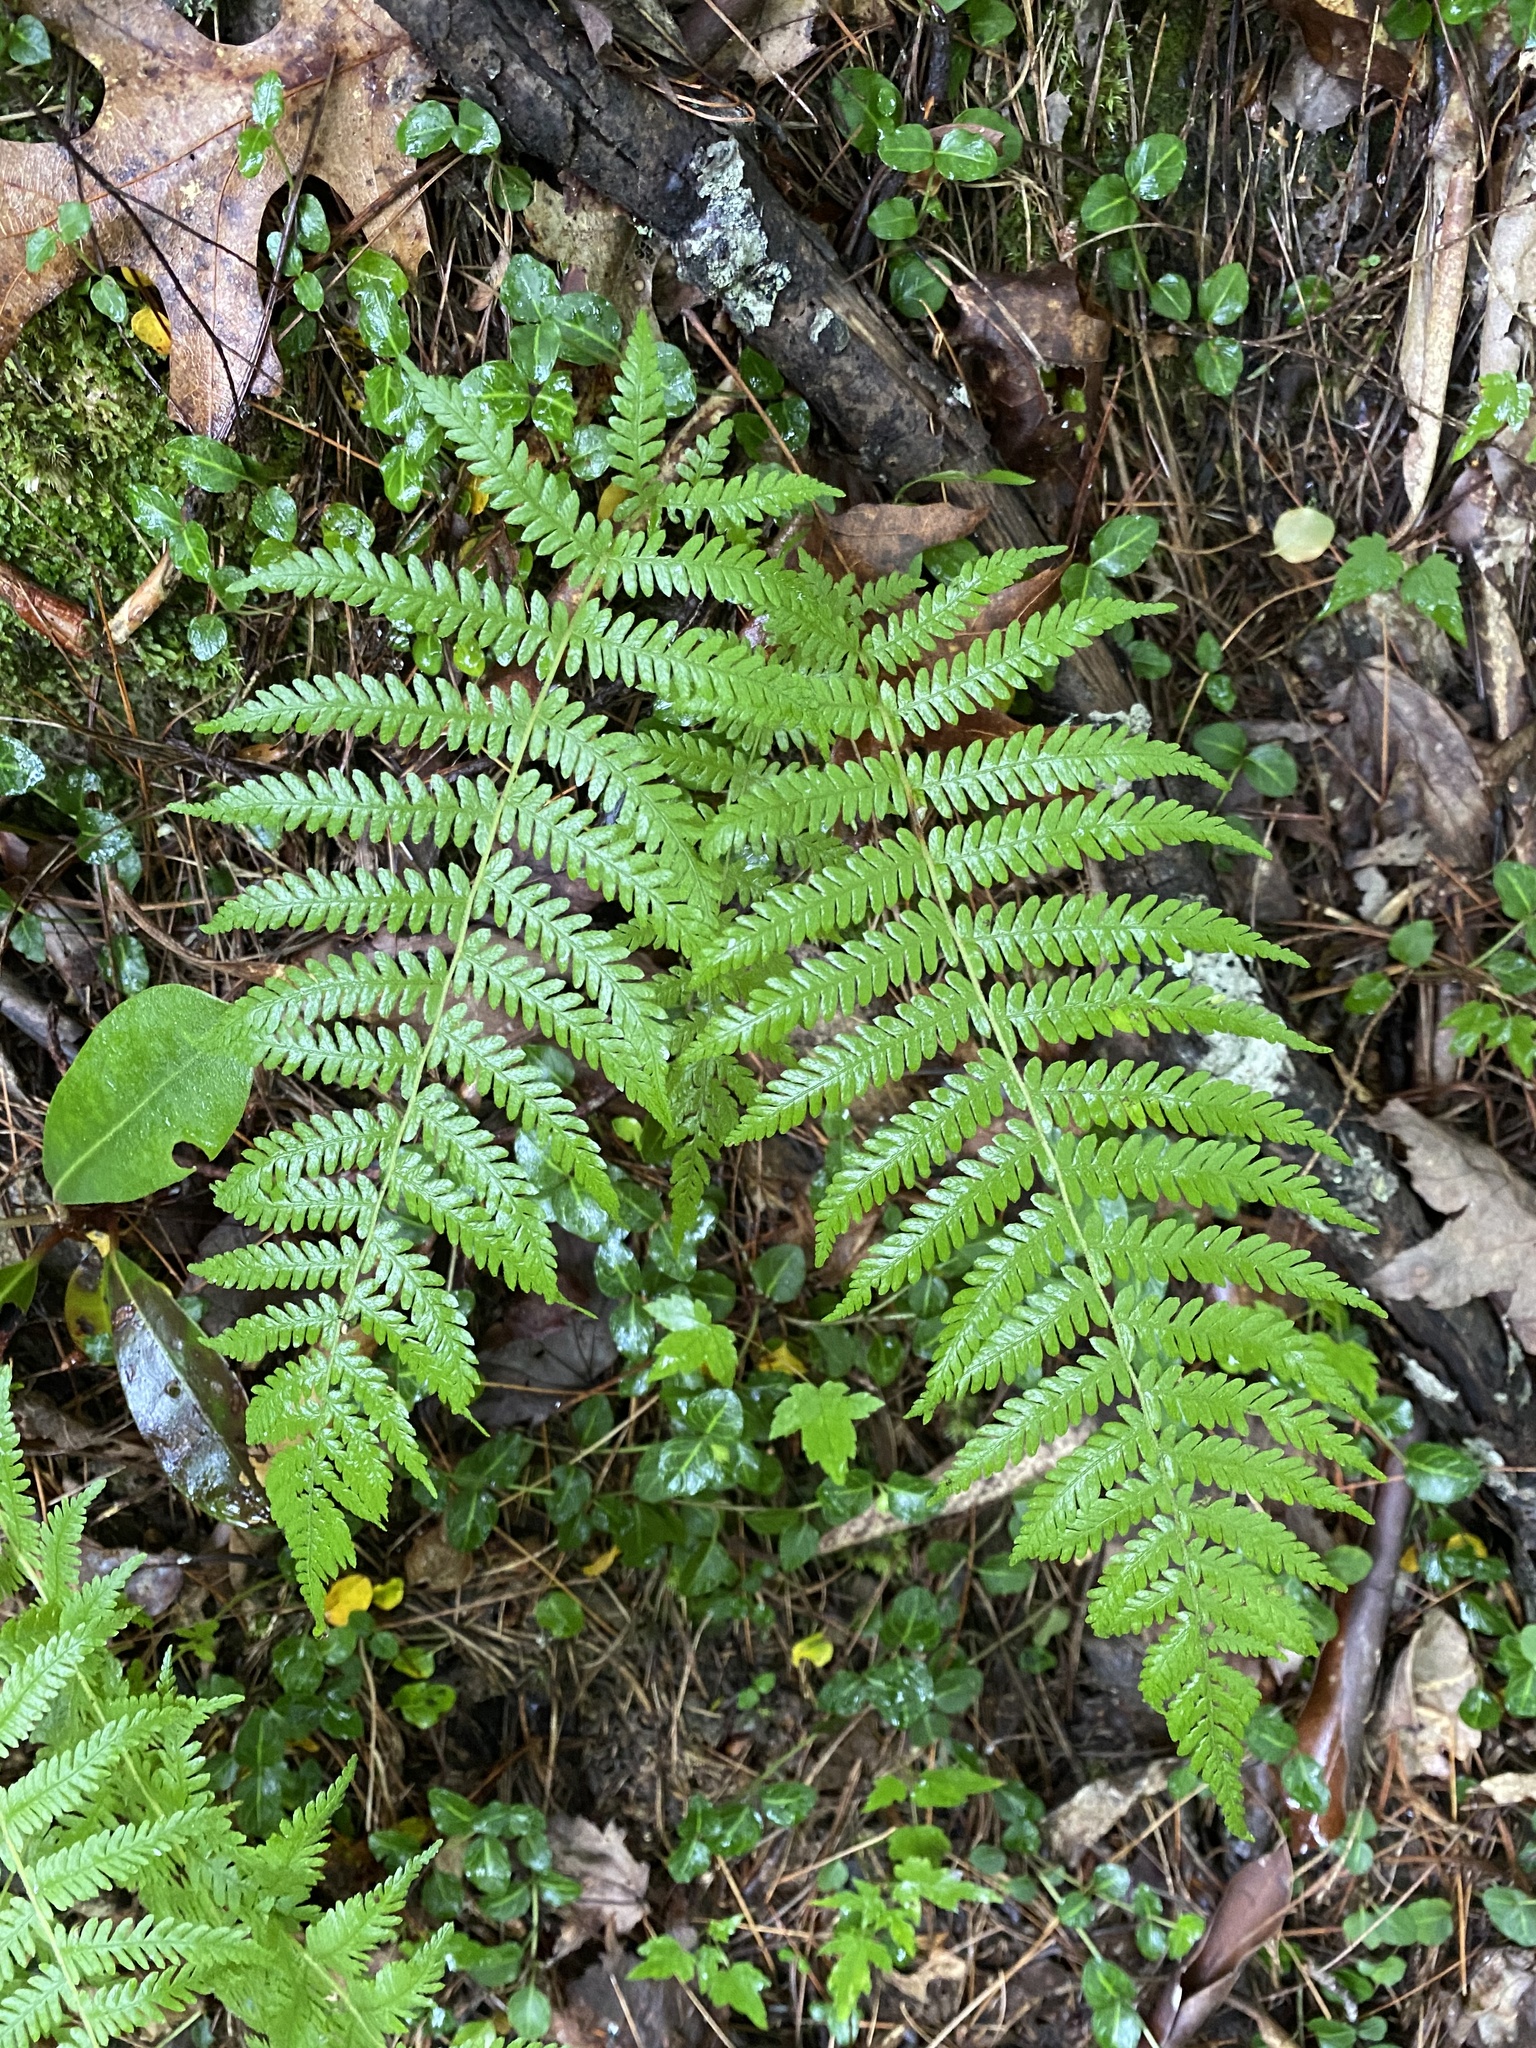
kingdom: Plantae
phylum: Tracheophyta
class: Polypodiopsida
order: Polypodiales
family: Thelypteridaceae
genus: Amauropelta
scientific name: Amauropelta noveboracensis
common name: New york fern
